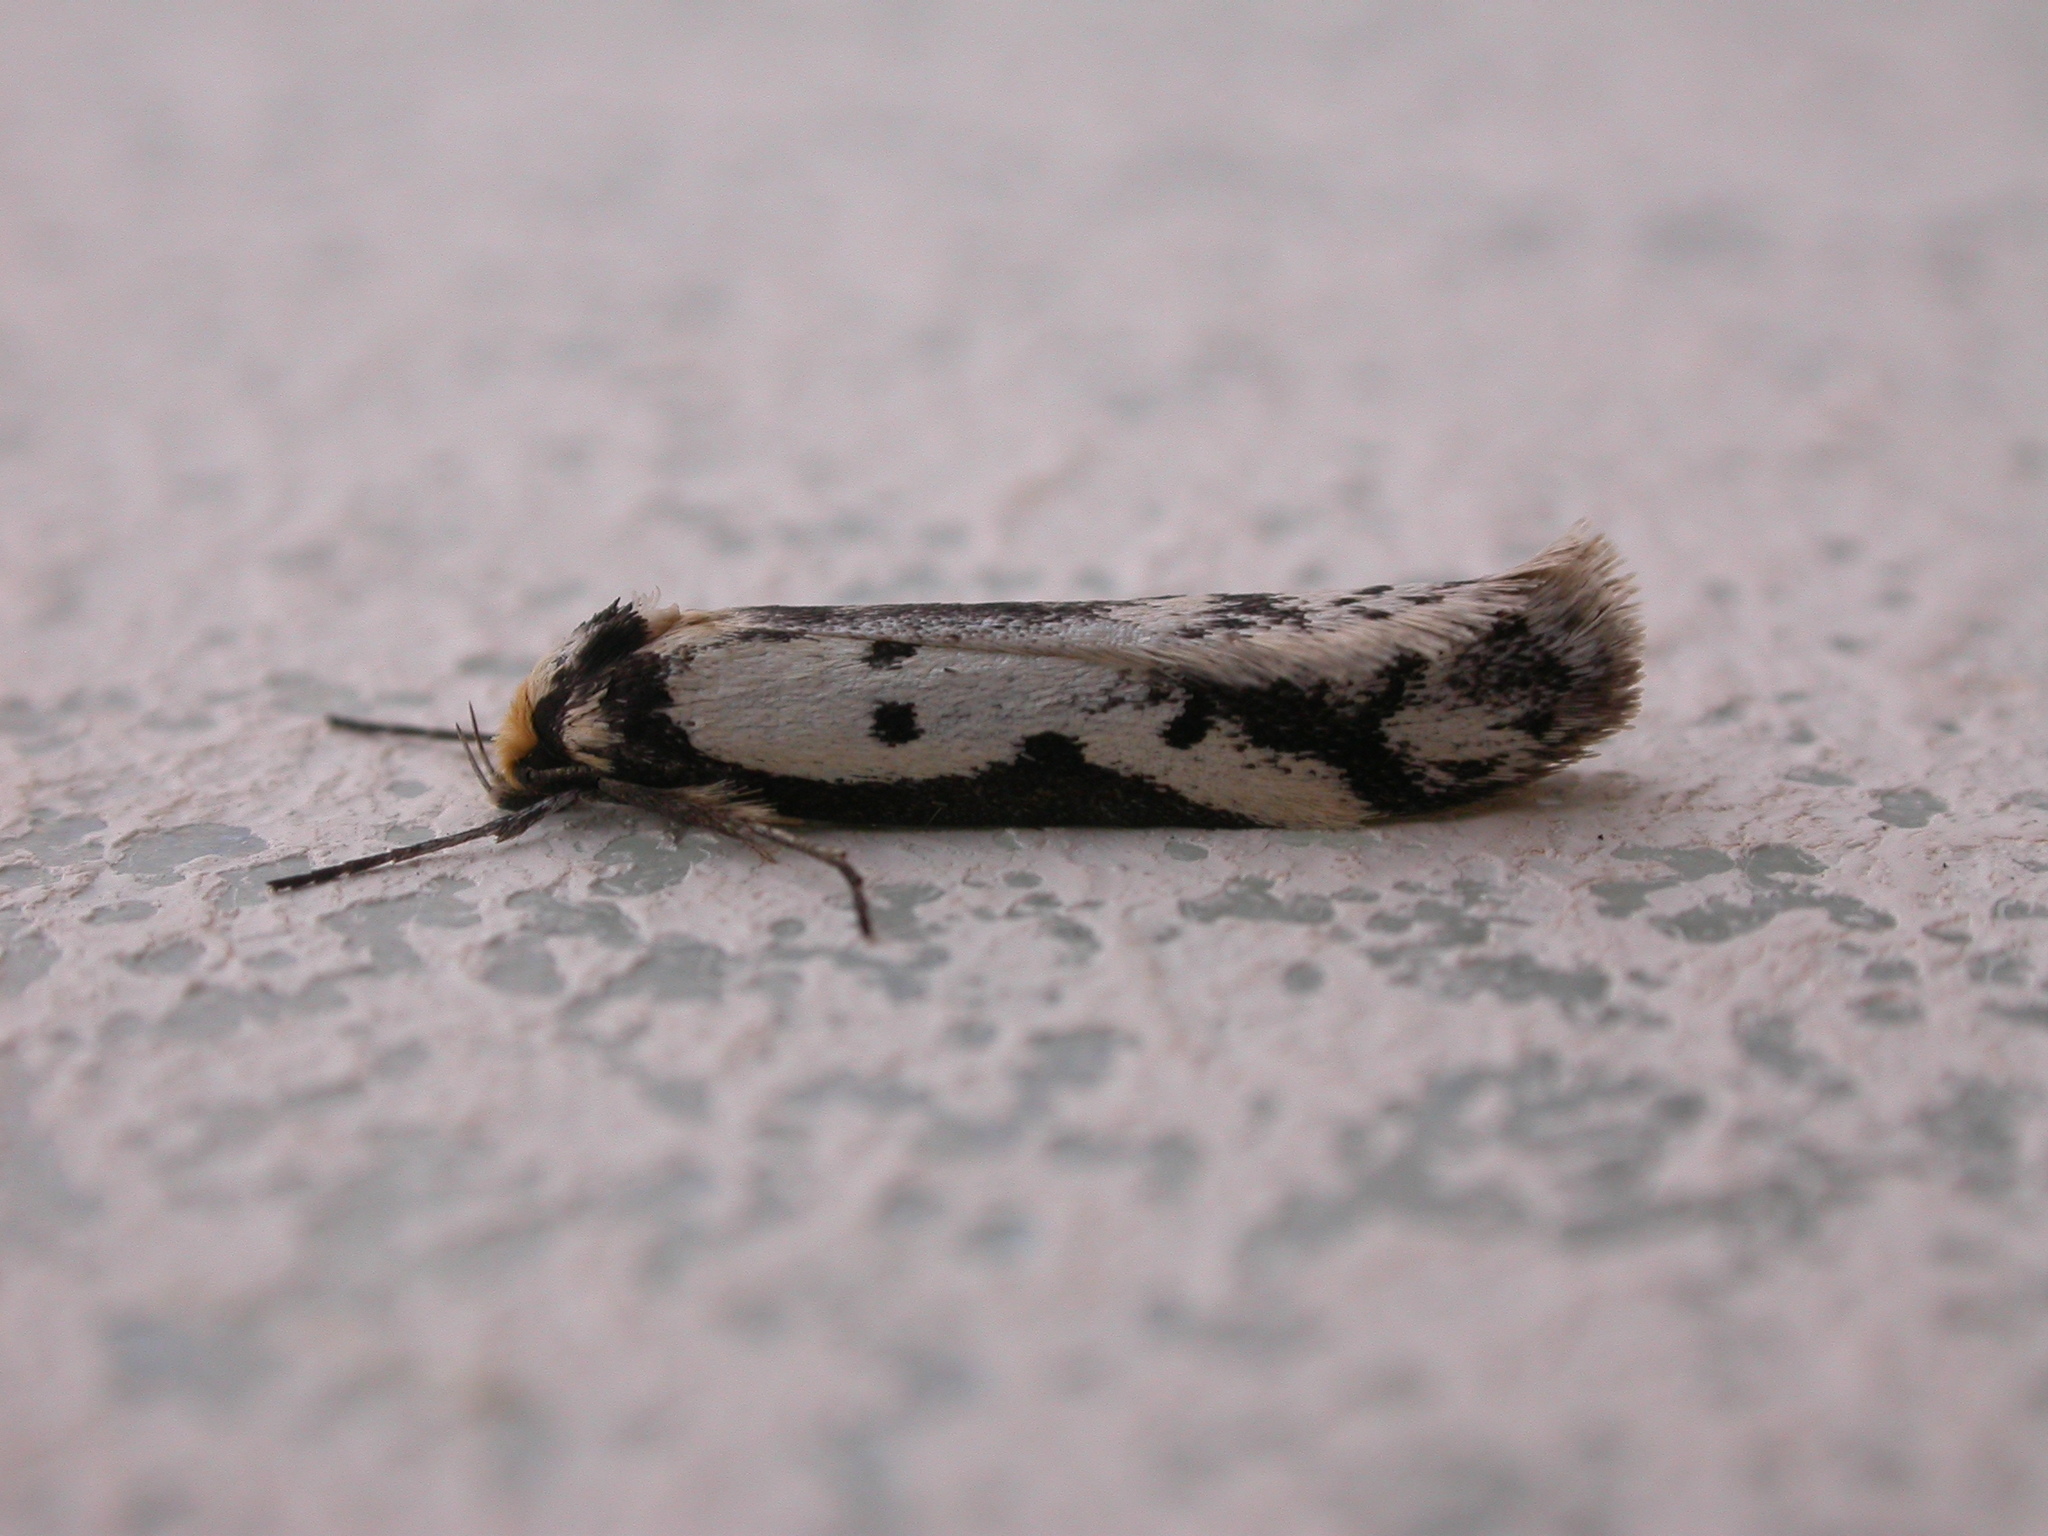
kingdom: Animalia
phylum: Arthropoda
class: Insecta
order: Lepidoptera
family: Oecophoridae
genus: Philobota
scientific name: Philobota lysizona
